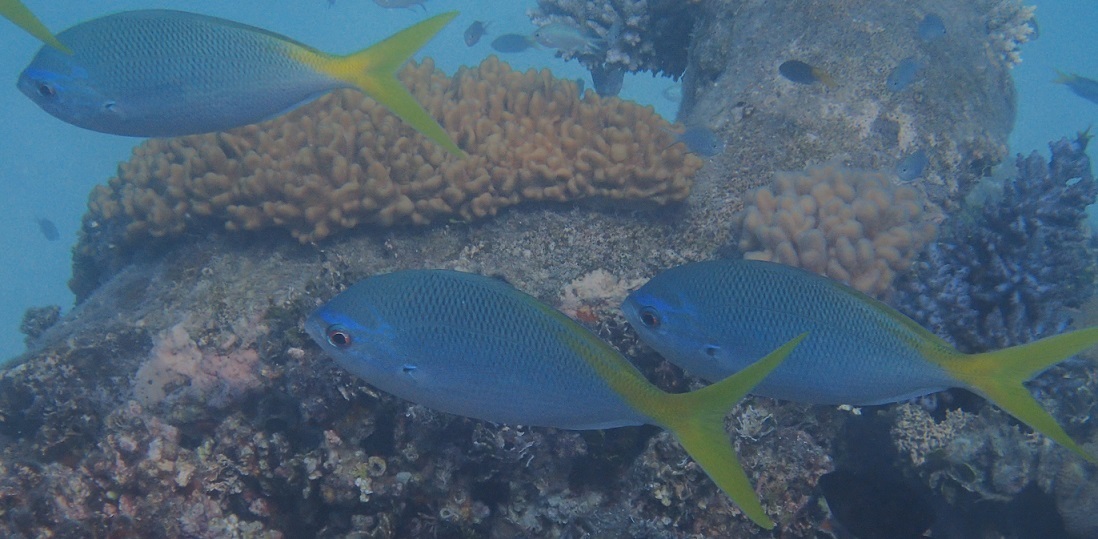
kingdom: Animalia
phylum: Chordata
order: Perciformes
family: Caesionidae
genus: Caesio
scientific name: Caesio cuning
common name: Red-bellied fusilier
